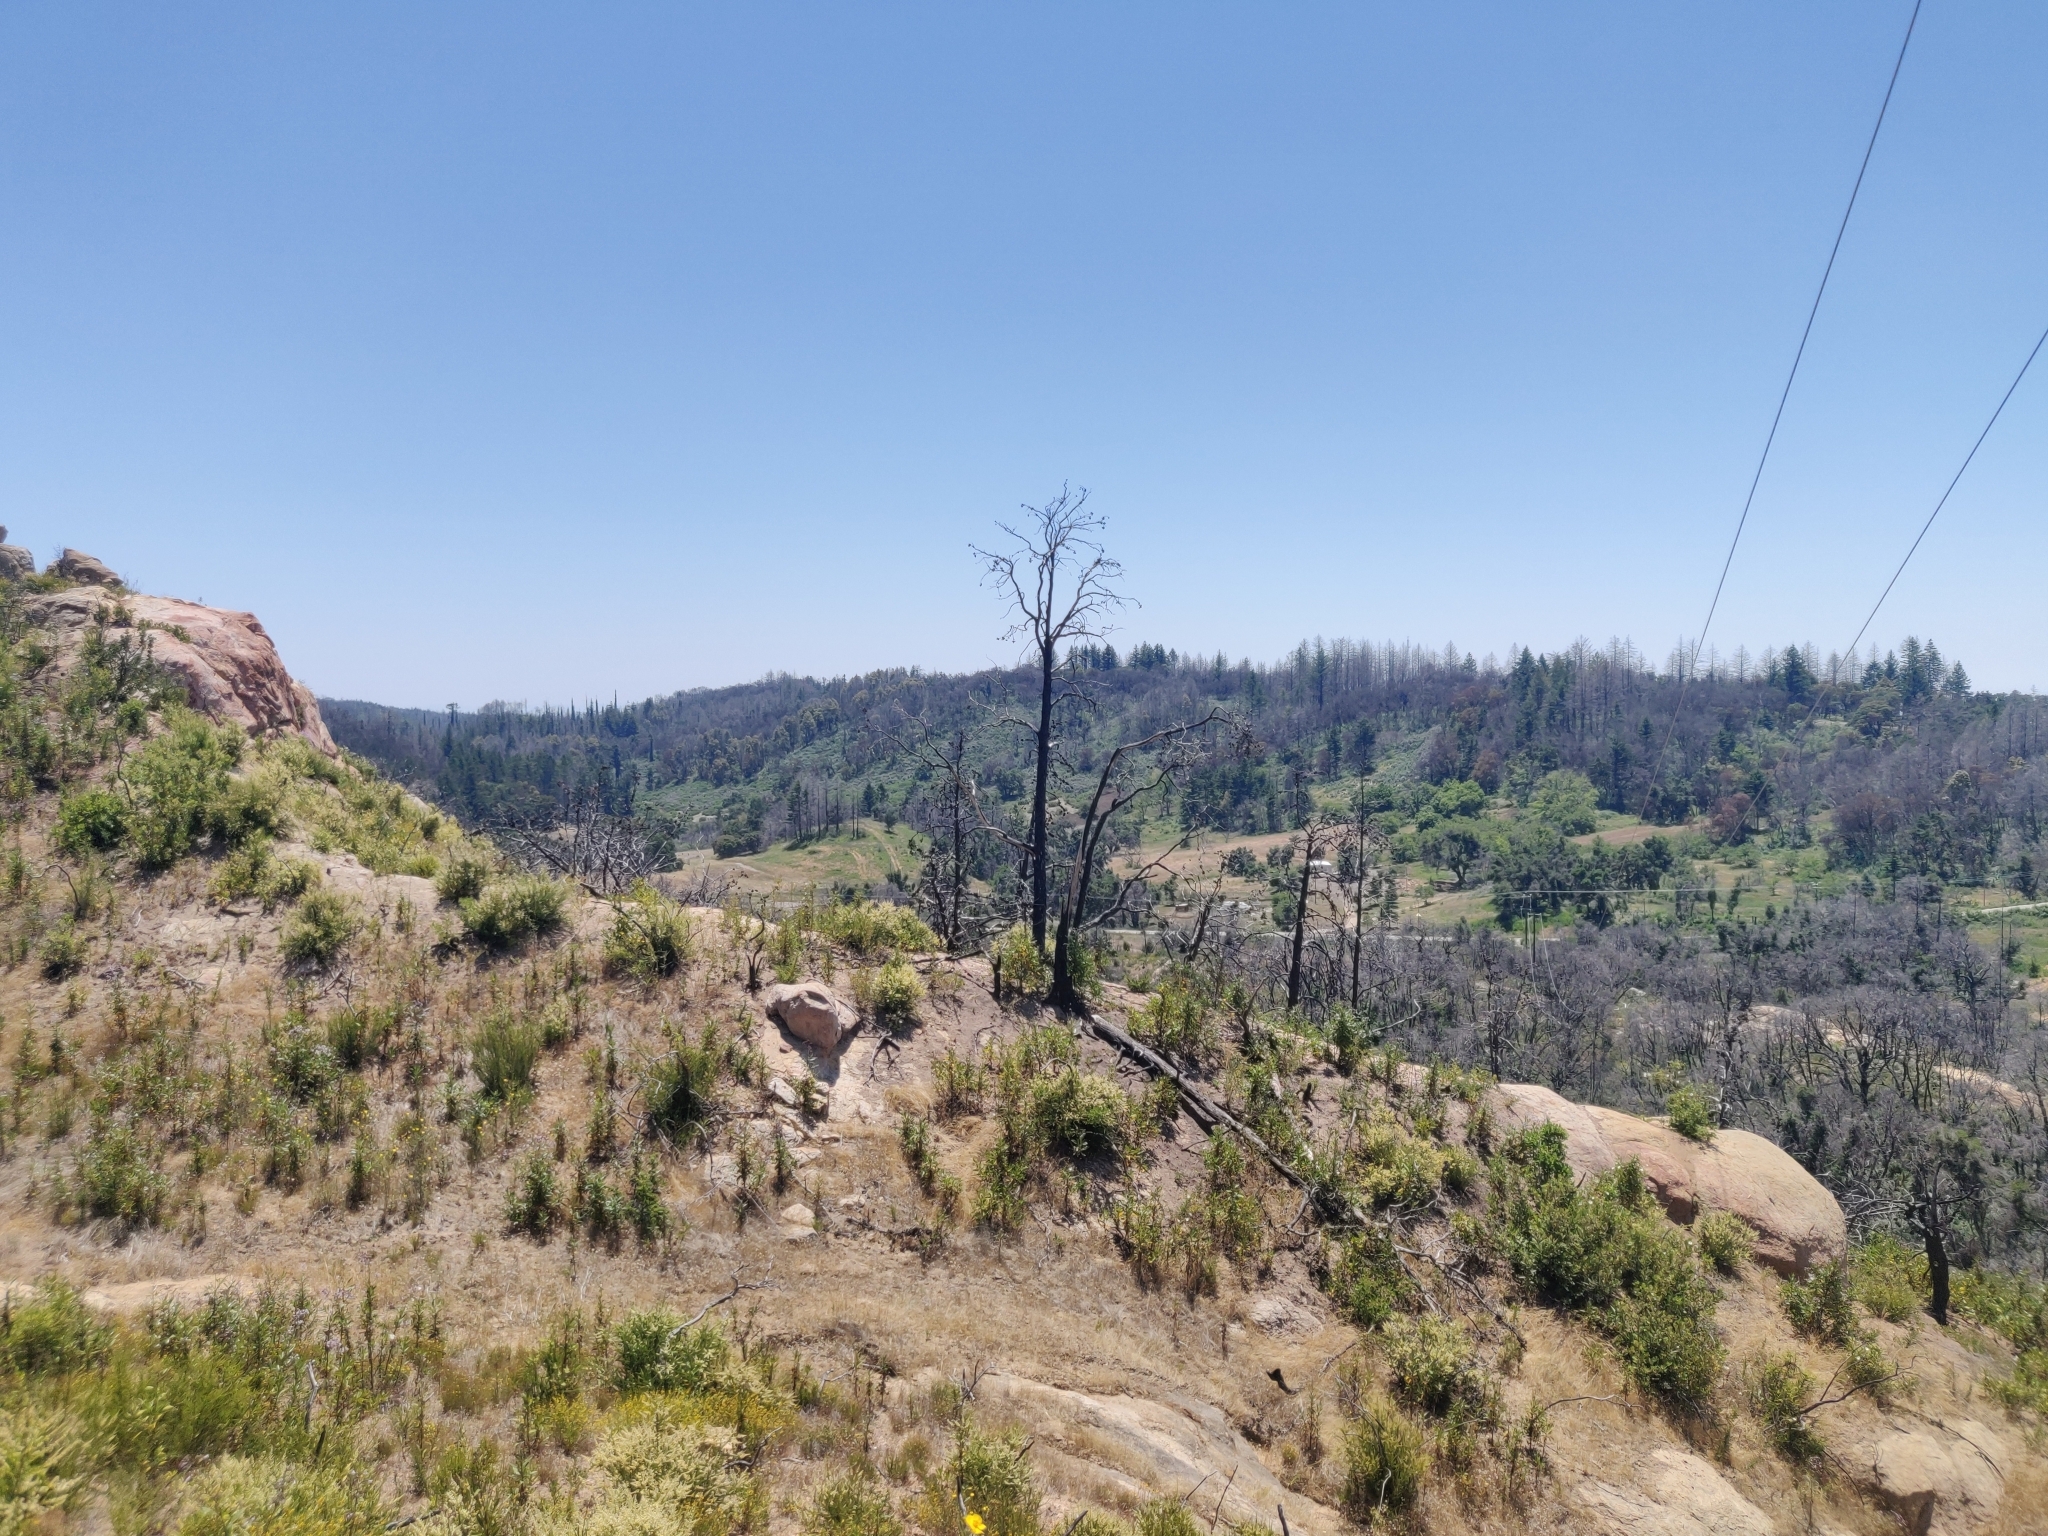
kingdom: Plantae
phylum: Tracheophyta
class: Pinopsida
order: Pinales
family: Cupressaceae
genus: Cupressus
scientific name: Cupressus goveniana
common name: Gowen cypress
